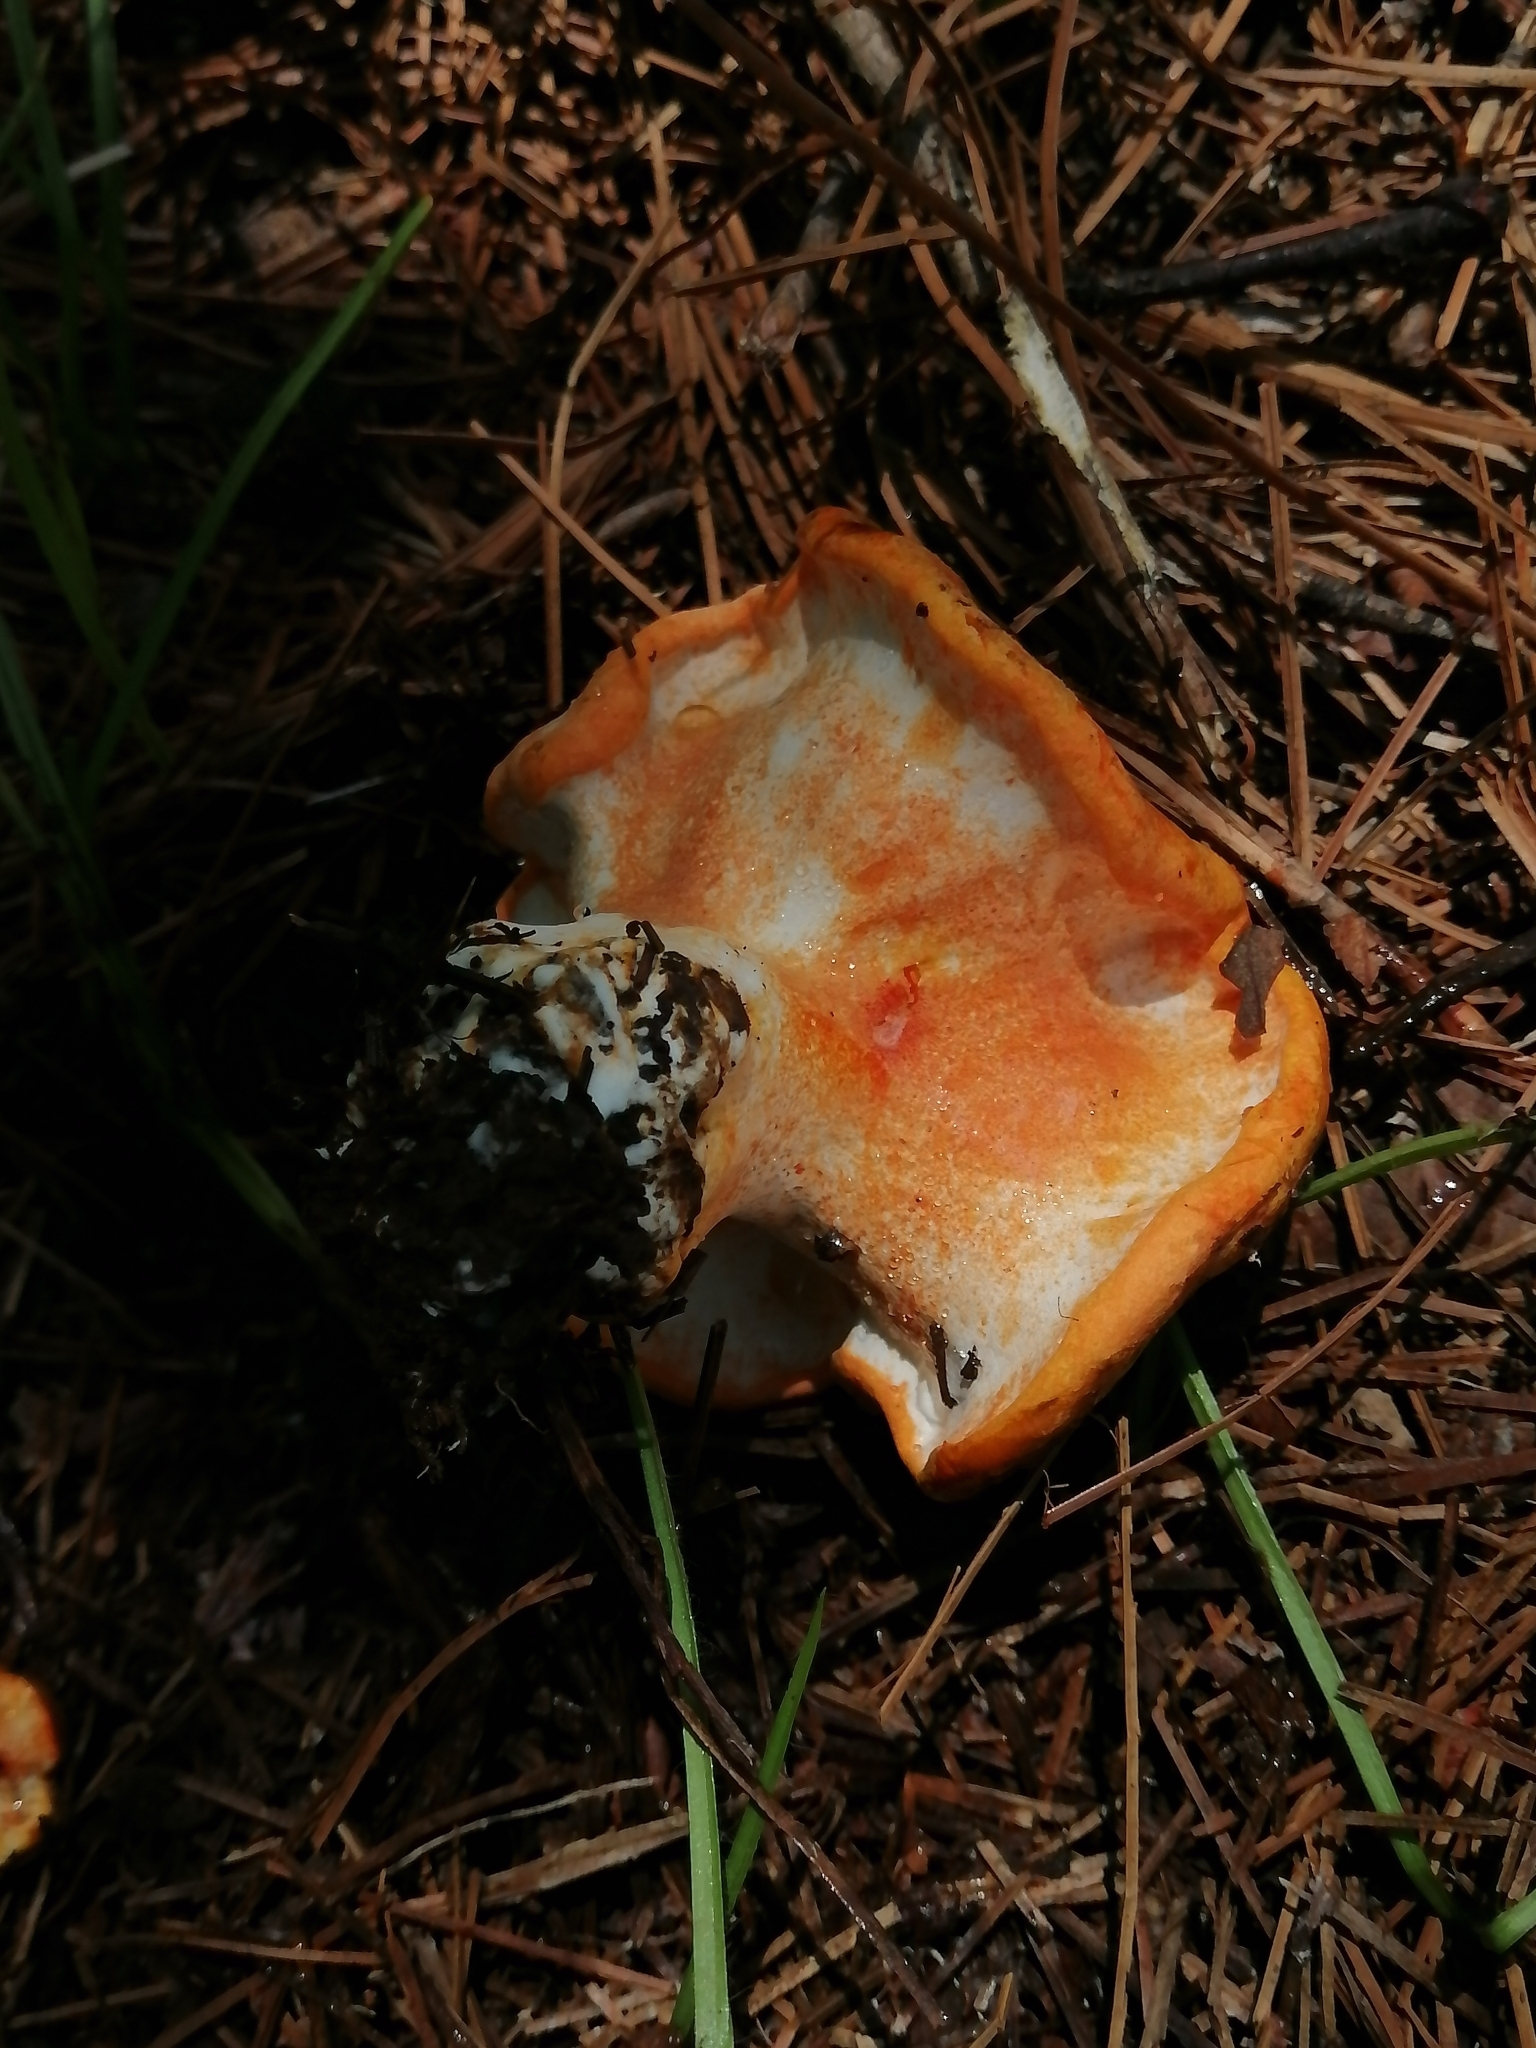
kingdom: Fungi
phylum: Ascomycota
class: Sordariomycetes
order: Hypocreales
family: Hypocreaceae
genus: Hypomyces
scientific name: Hypomyces lactifluorum
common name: Lobster mushroom
